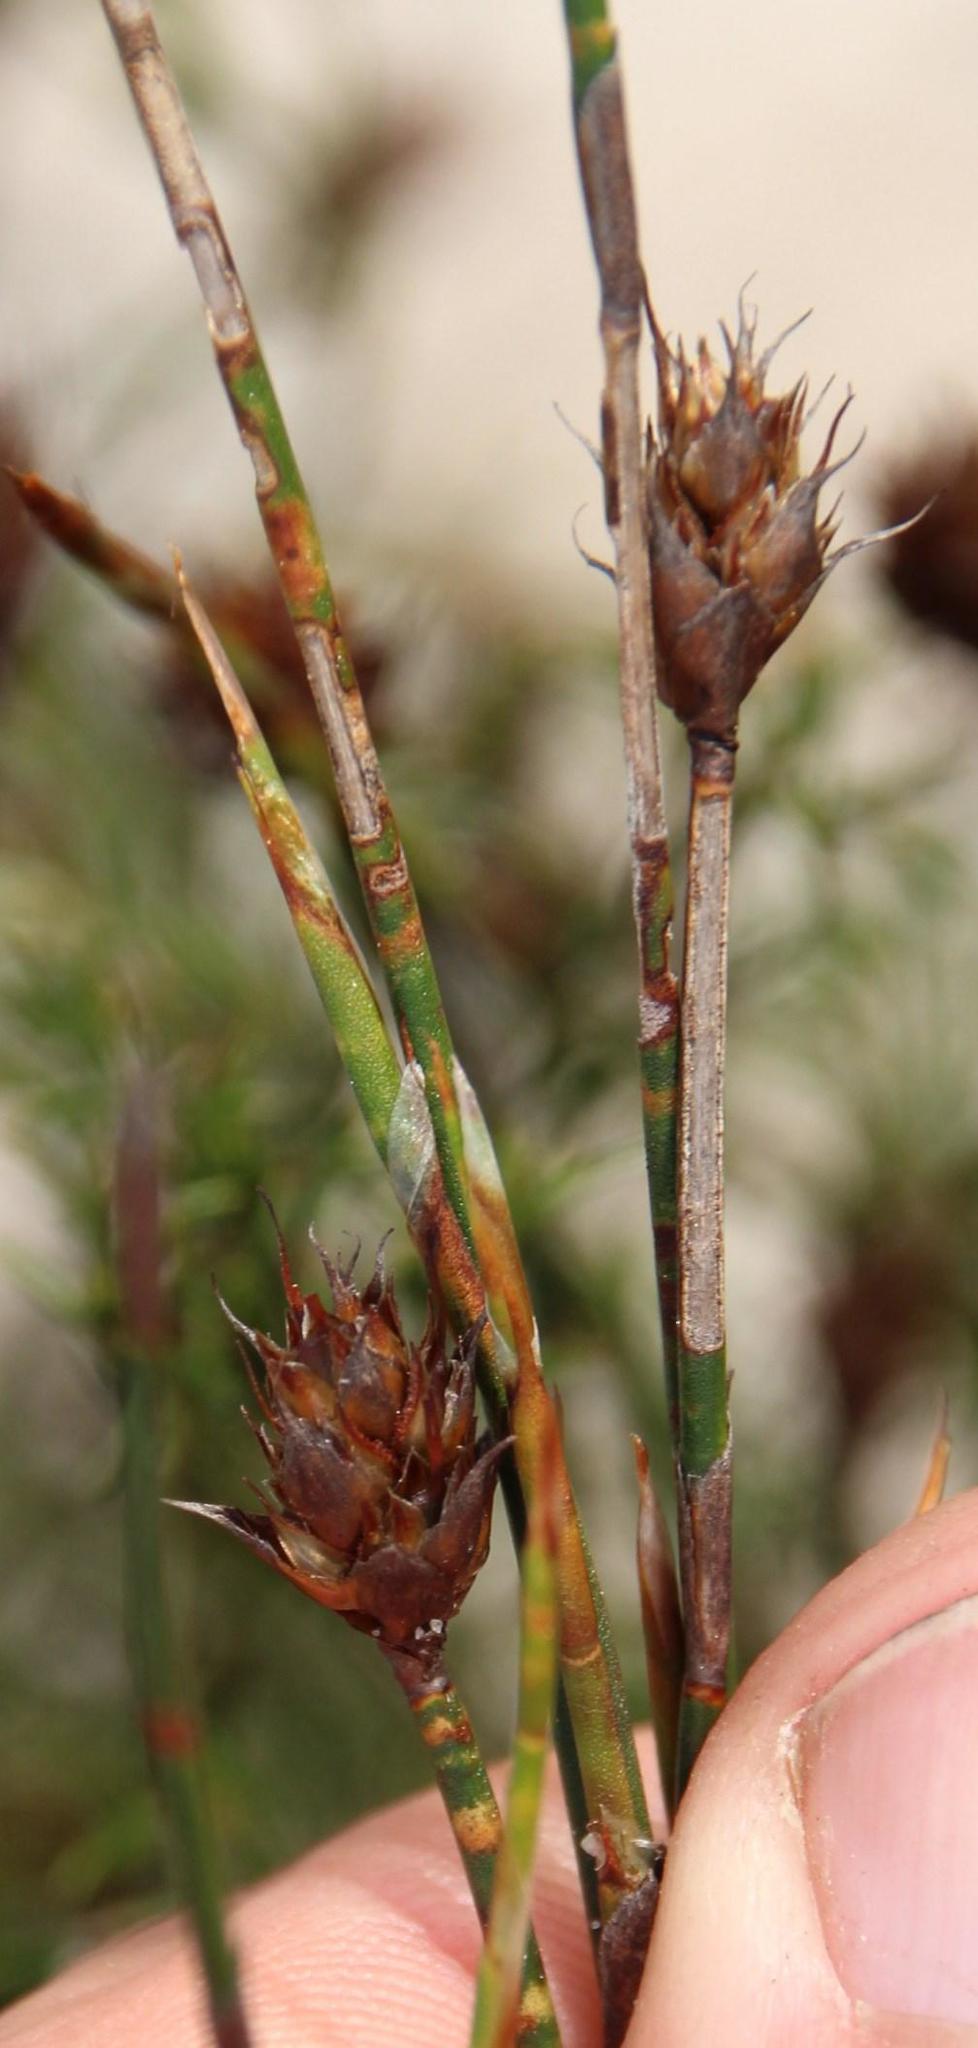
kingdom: Plantae
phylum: Tracheophyta
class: Liliopsida
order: Poales
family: Restionaceae
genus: Restio
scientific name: Restio capensis
